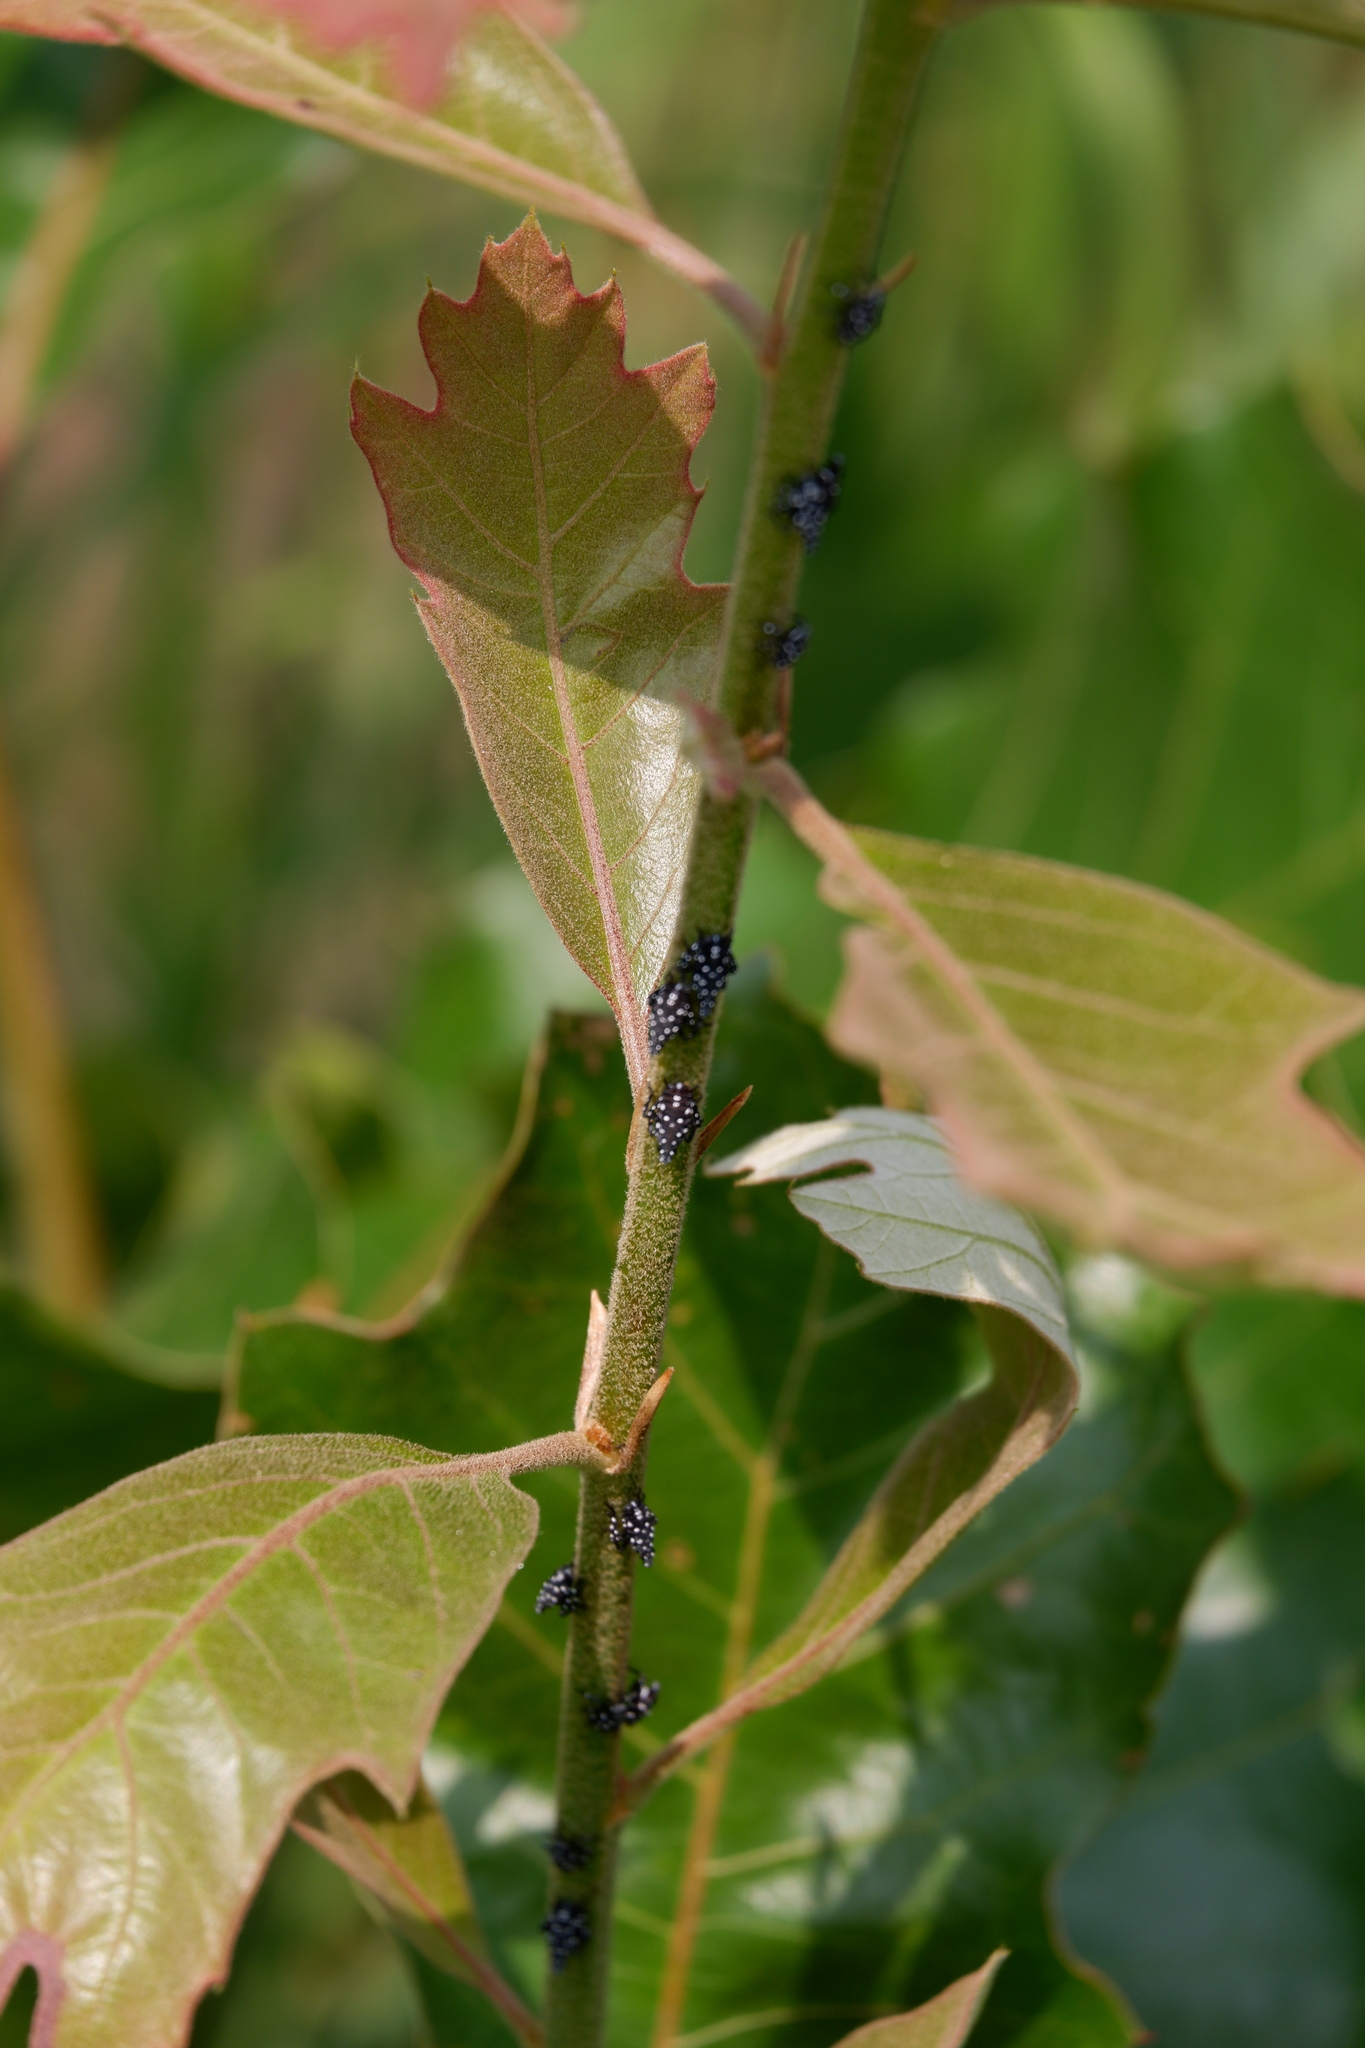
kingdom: Animalia
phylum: Arthropoda
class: Insecta
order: Hemiptera
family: Fulgoridae
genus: Lycorma
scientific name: Lycorma delicatula
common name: Spotted lanternfly
